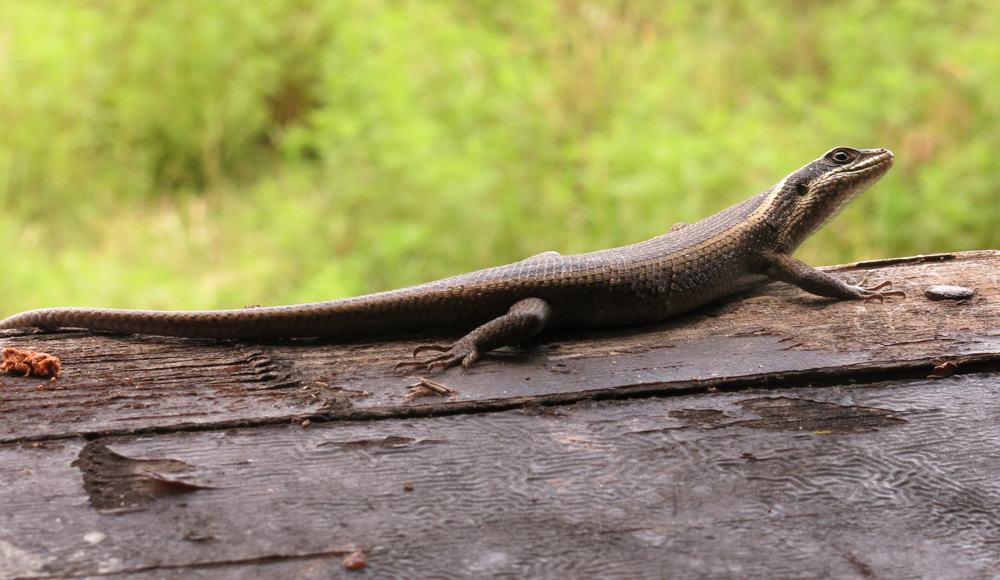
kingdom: Animalia
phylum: Chordata
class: Squamata
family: Scincidae
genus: Trachylepis
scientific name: Trachylepis punctatissima
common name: Montane speckled skink
